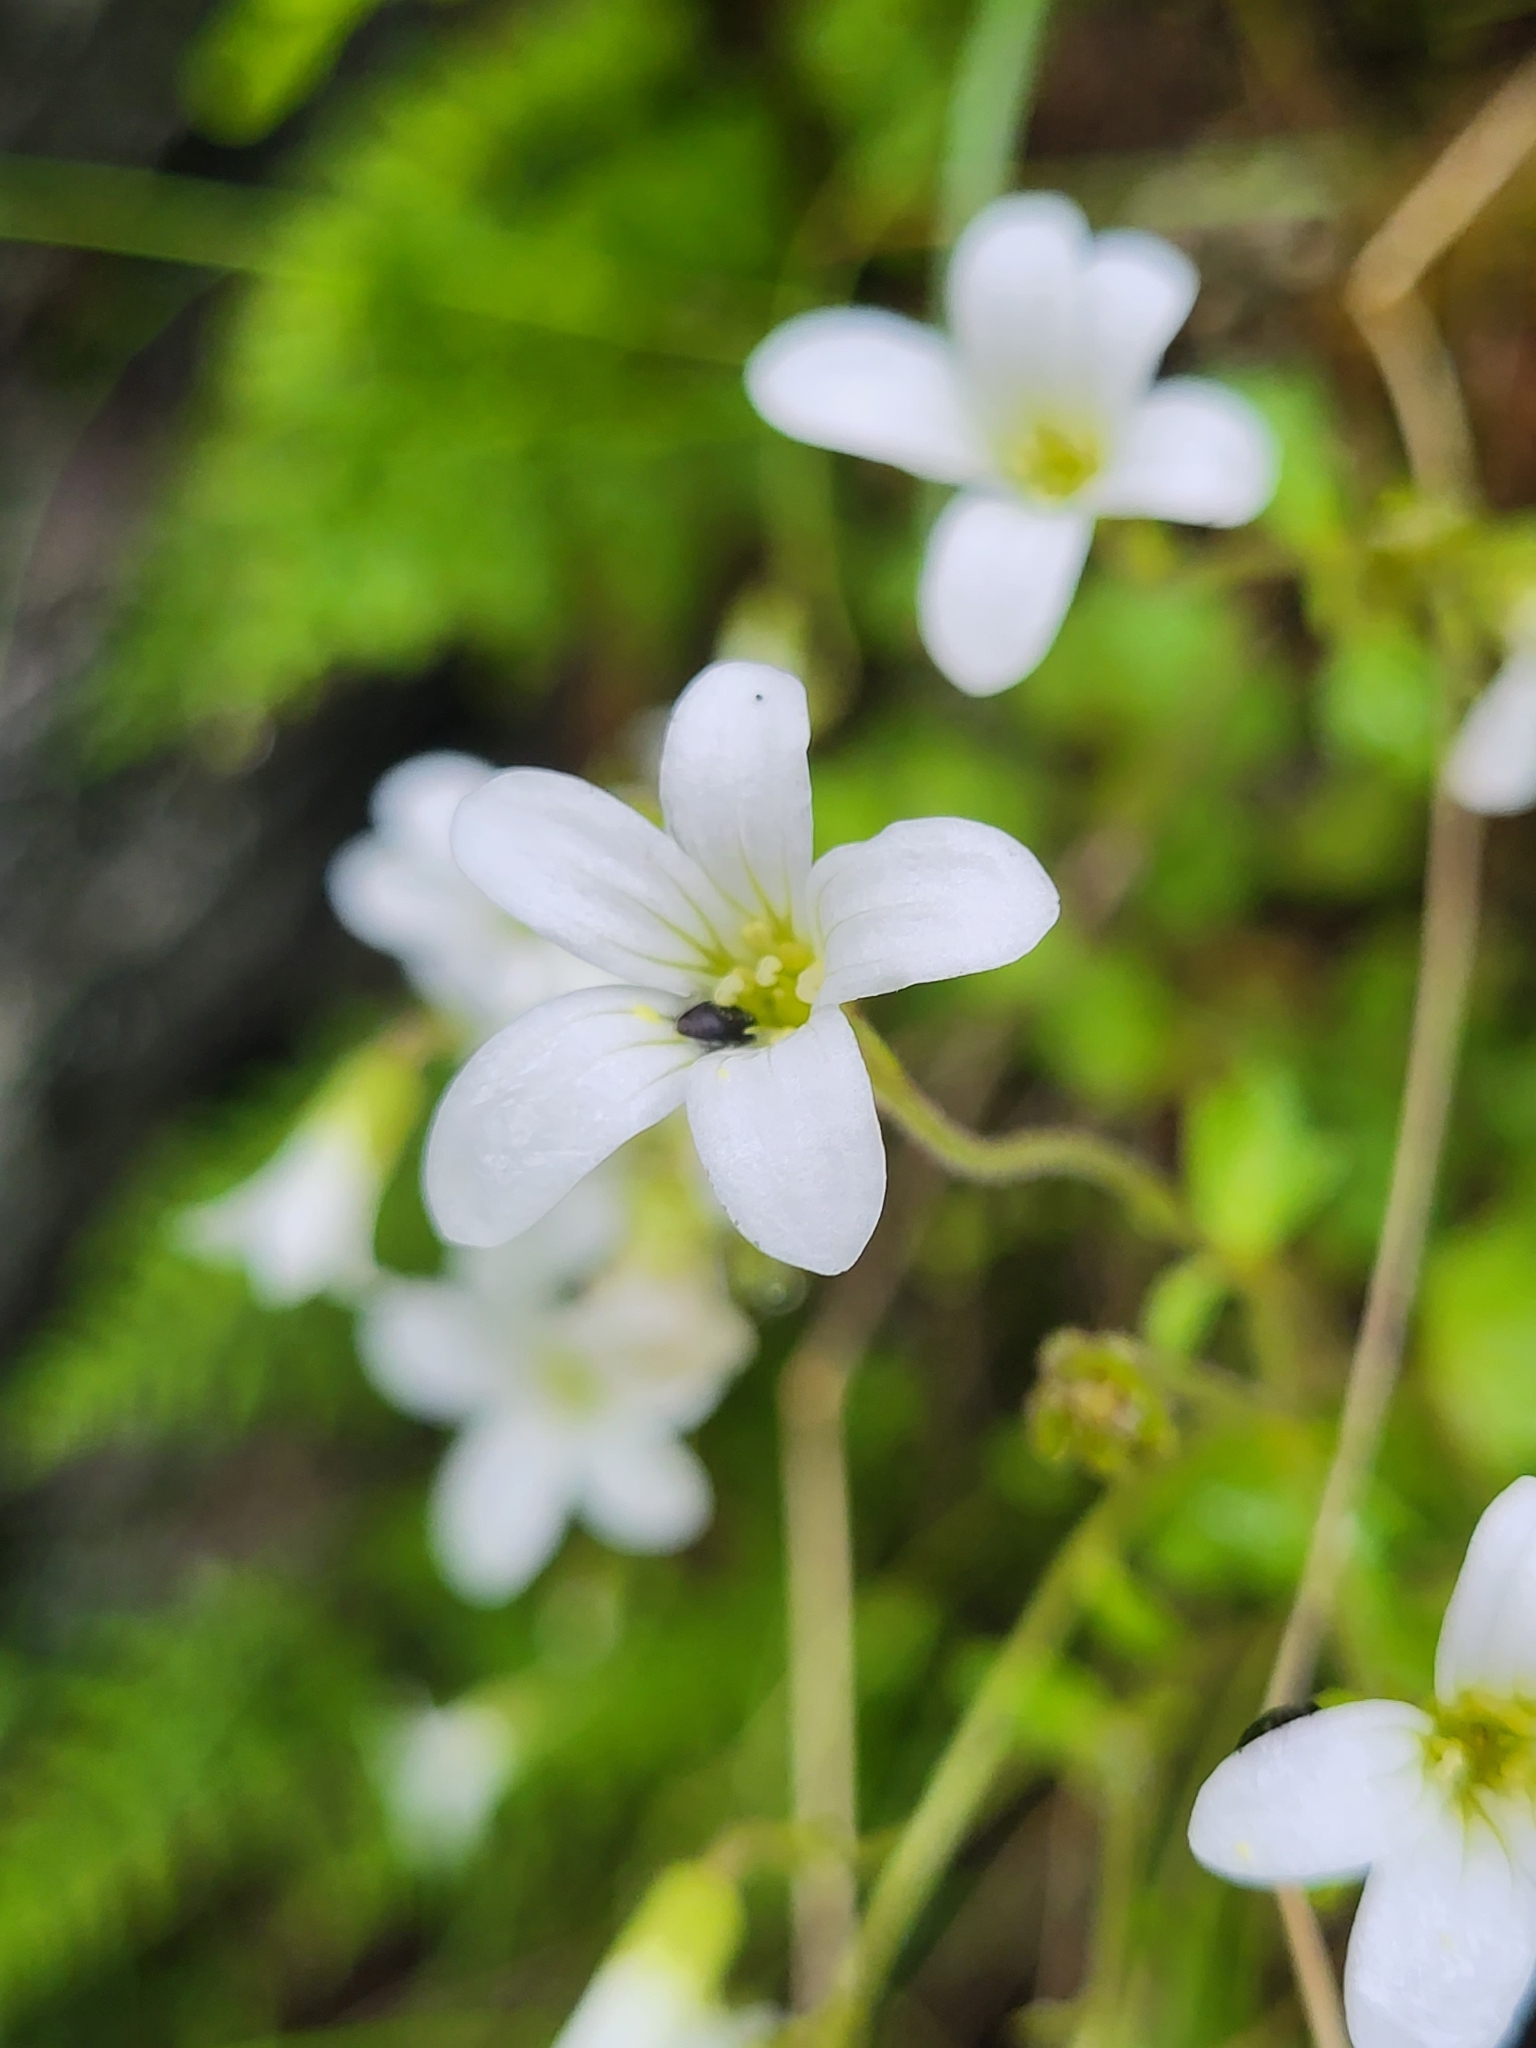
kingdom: Plantae
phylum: Tracheophyta
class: Magnoliopsida
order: Saxifragales
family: Saxifragaceae
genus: Saxifraga
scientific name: Saxifraga sibirica
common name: Siberian saxifrage
